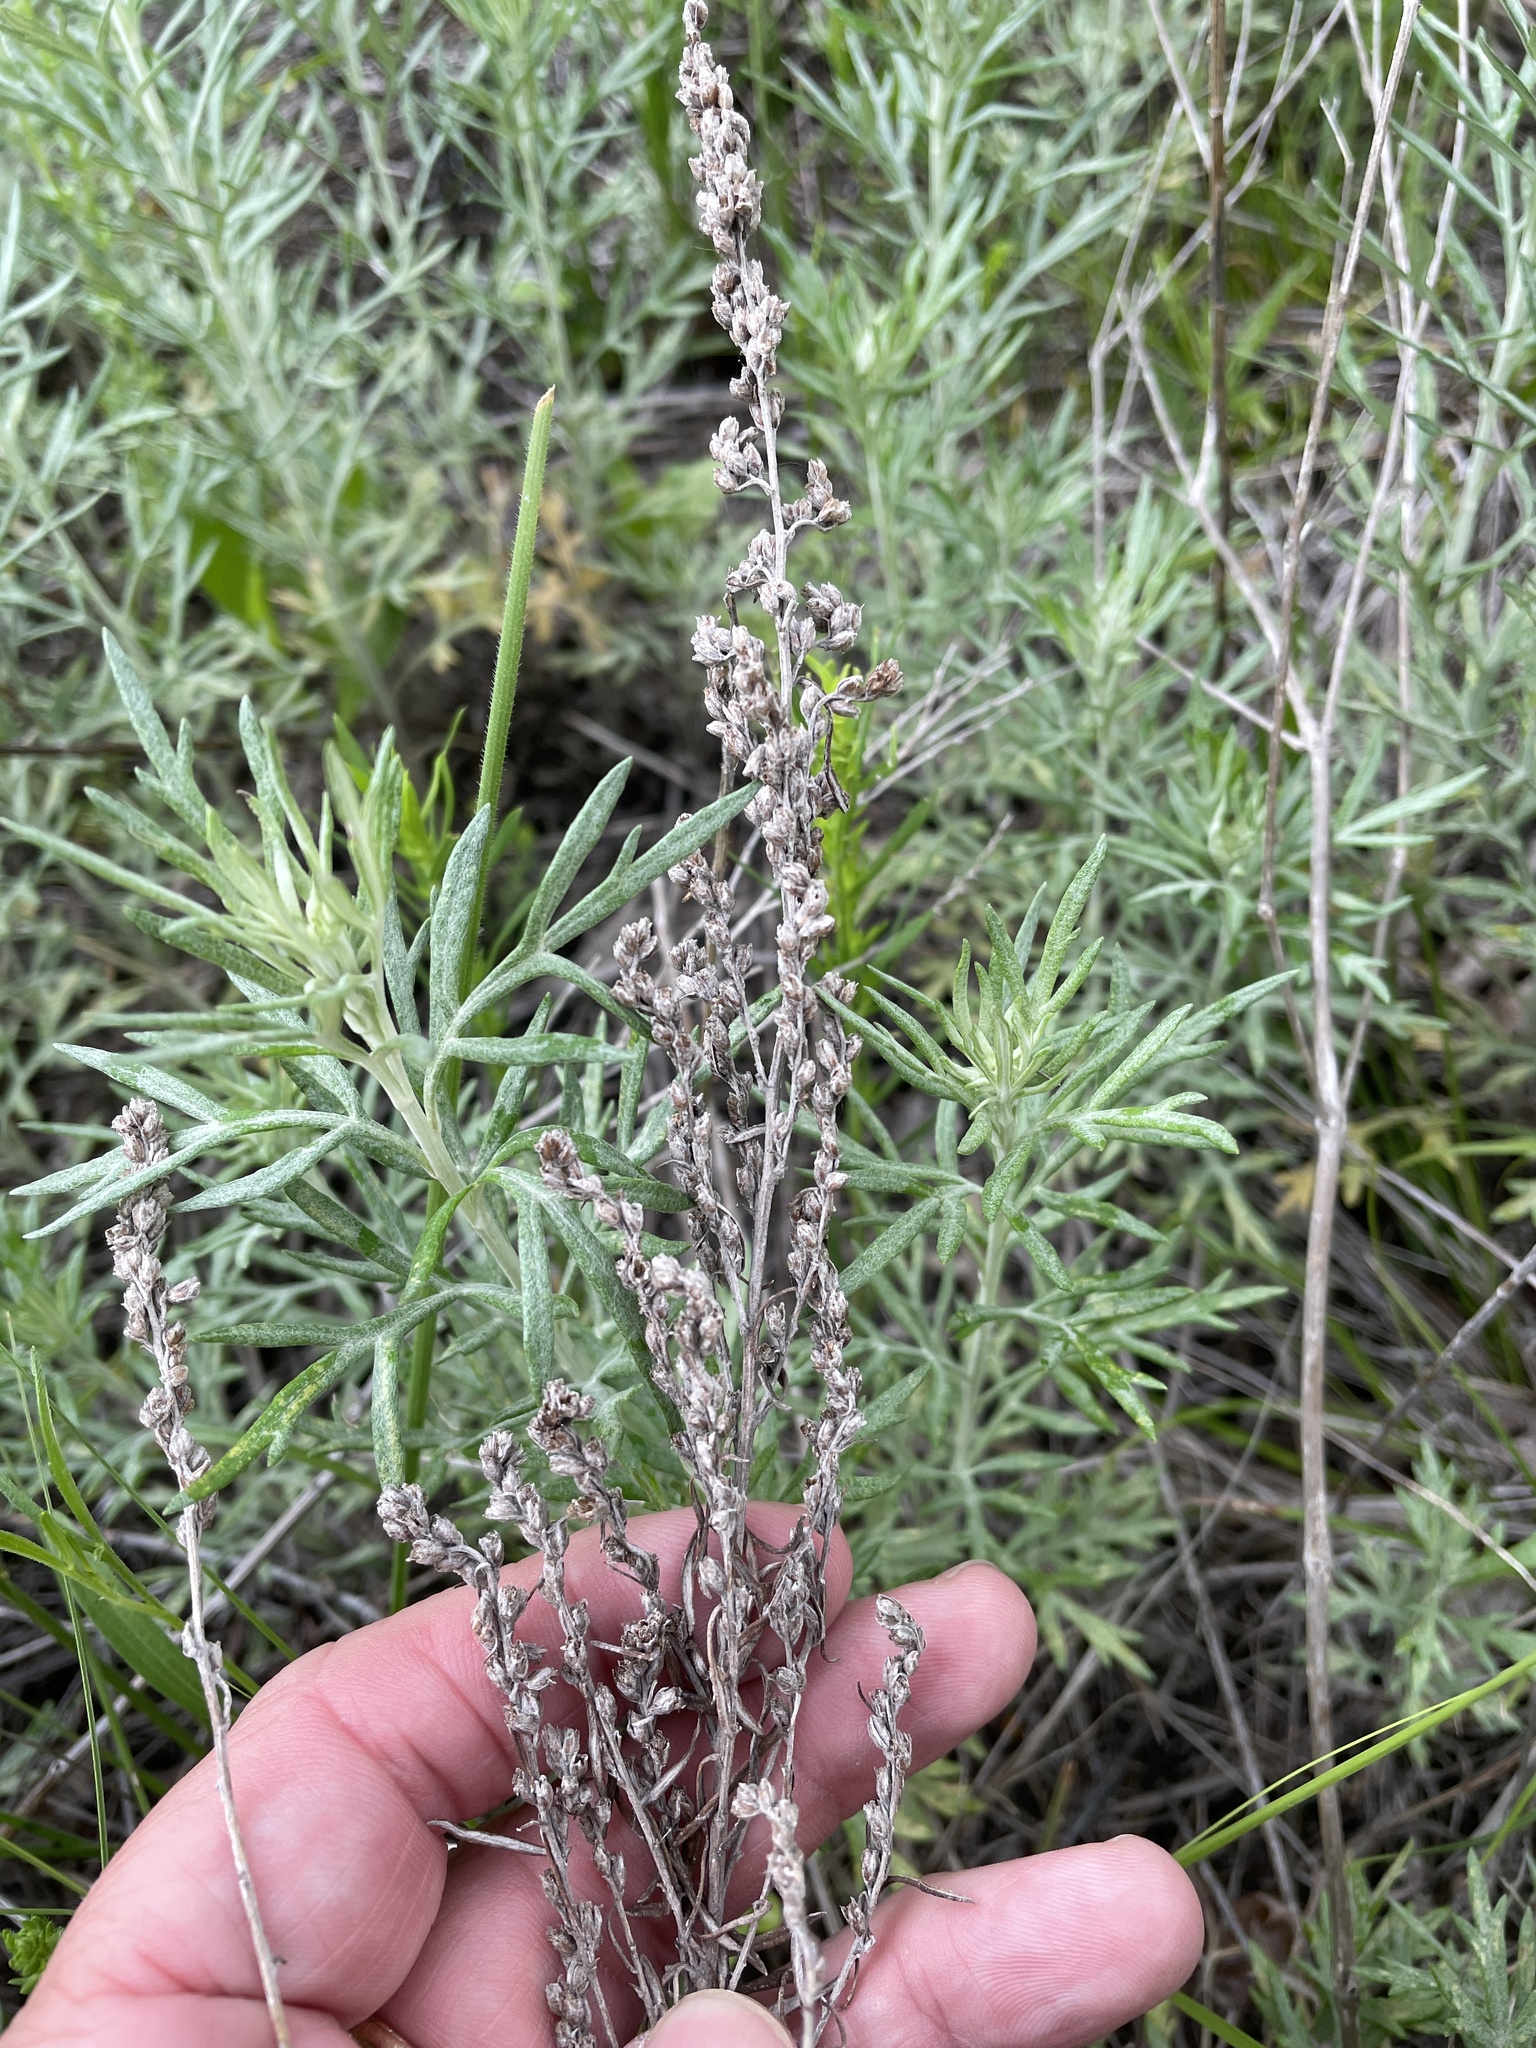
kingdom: Plantae
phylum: Tracheophyta
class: Magnoliopsida
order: Asterales
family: Asteraceae
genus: Artemisia
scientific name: Artemisia ludoviciana
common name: Western mugwort
